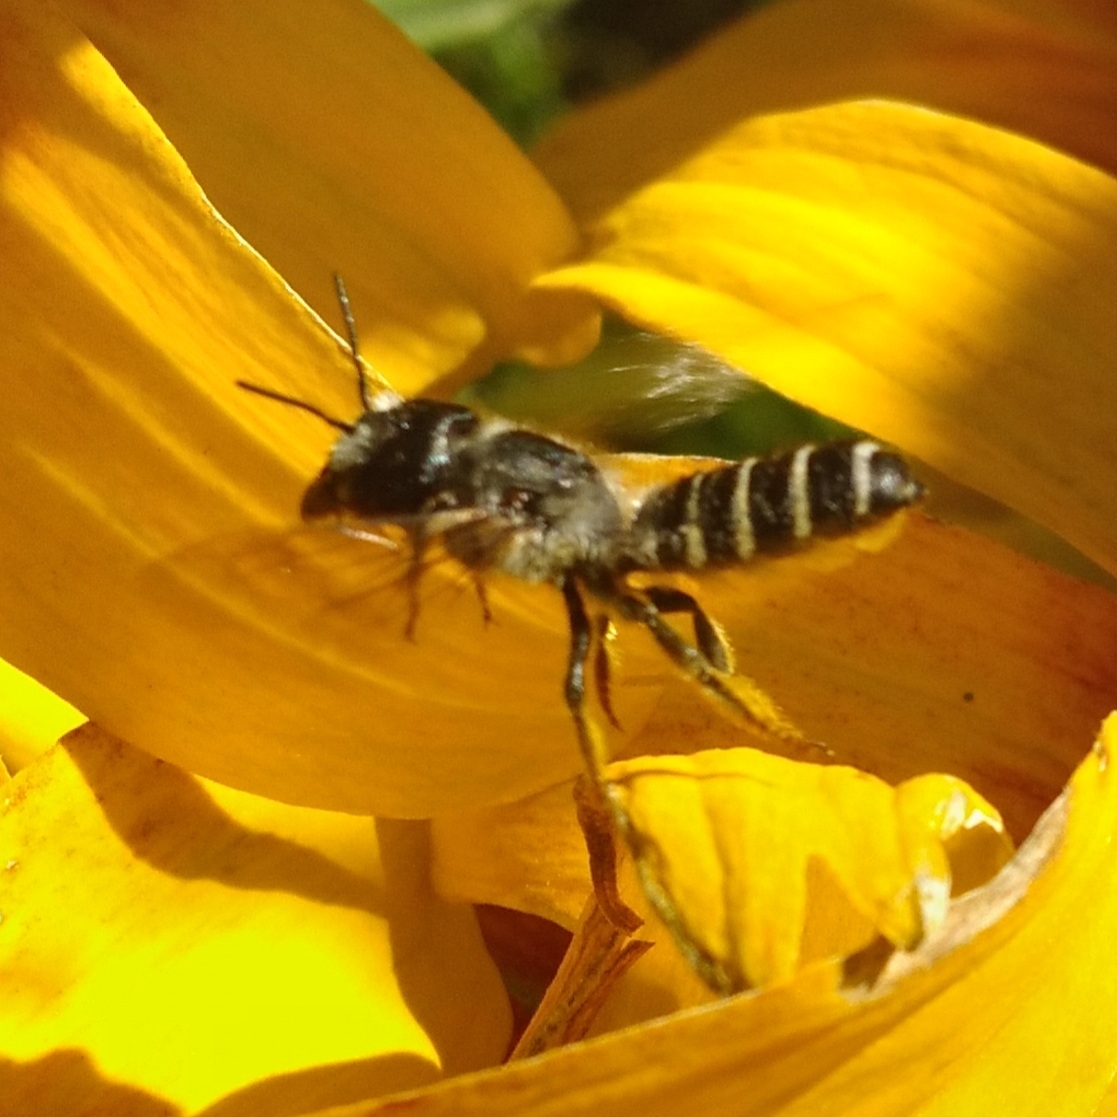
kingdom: Animalia
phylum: Arthropoda
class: Insecta
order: Hymenoptera
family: Megachilidae
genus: Megachile
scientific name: Megachile pugnata
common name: Pugnacious leafcutter bee
